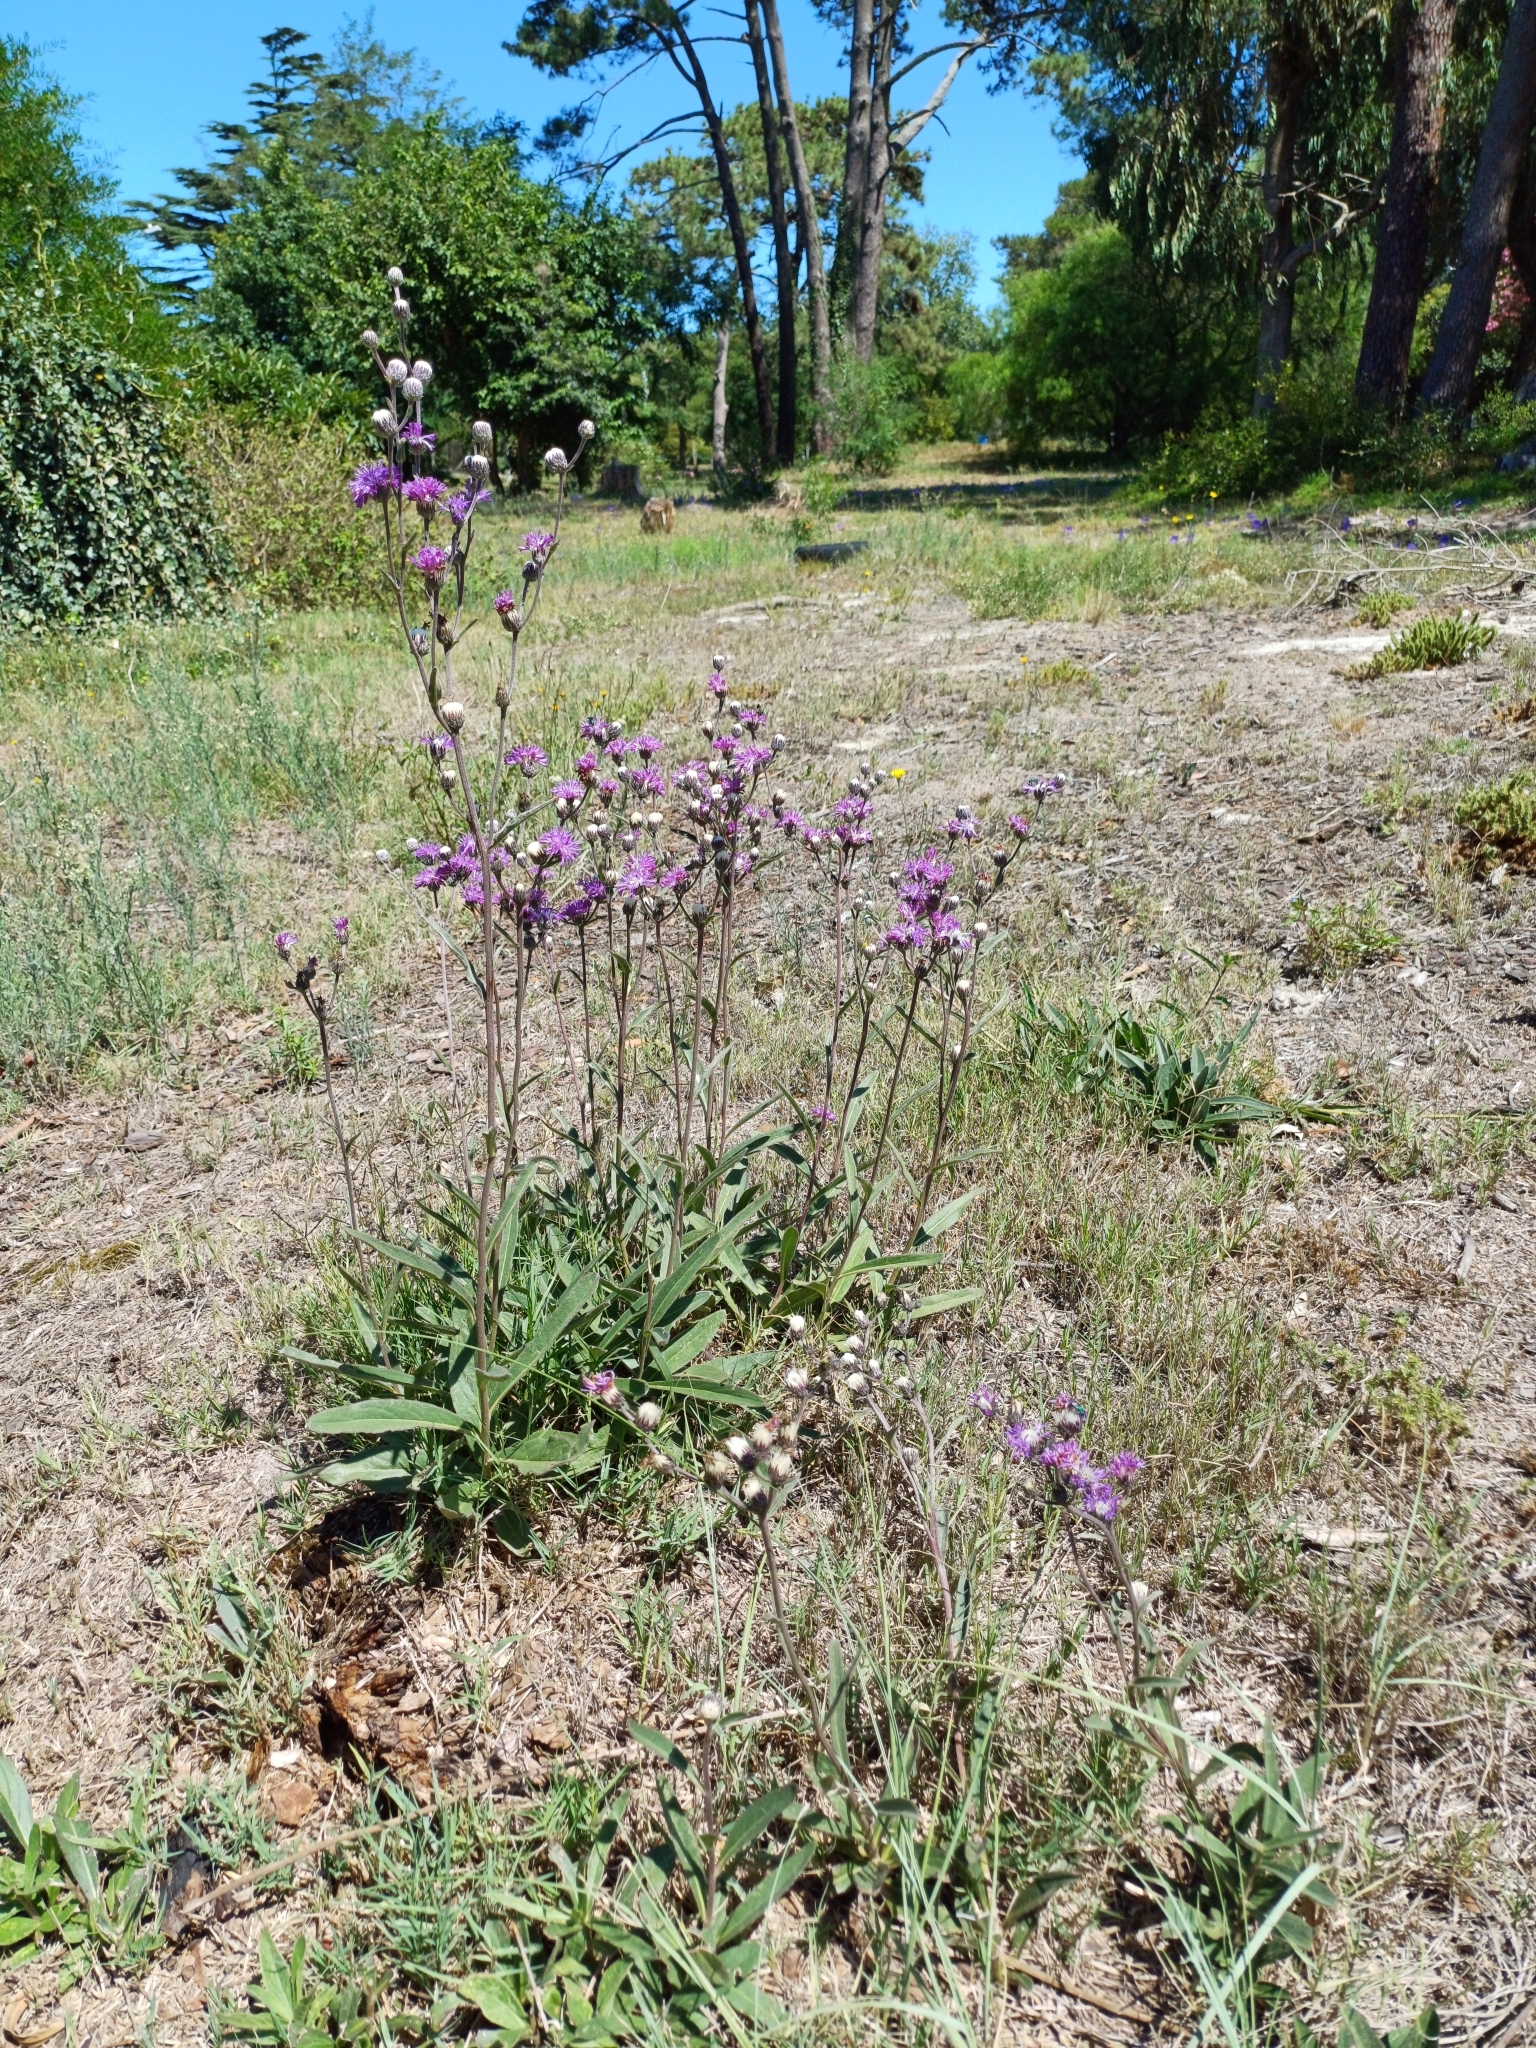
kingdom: Plantae
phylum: Tracheophyta
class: Magnoliopsida
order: Asterales
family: Asteraceae
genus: Chrysolaena
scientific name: Chrysolaena flexuosa
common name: Zig-zag vernonia
